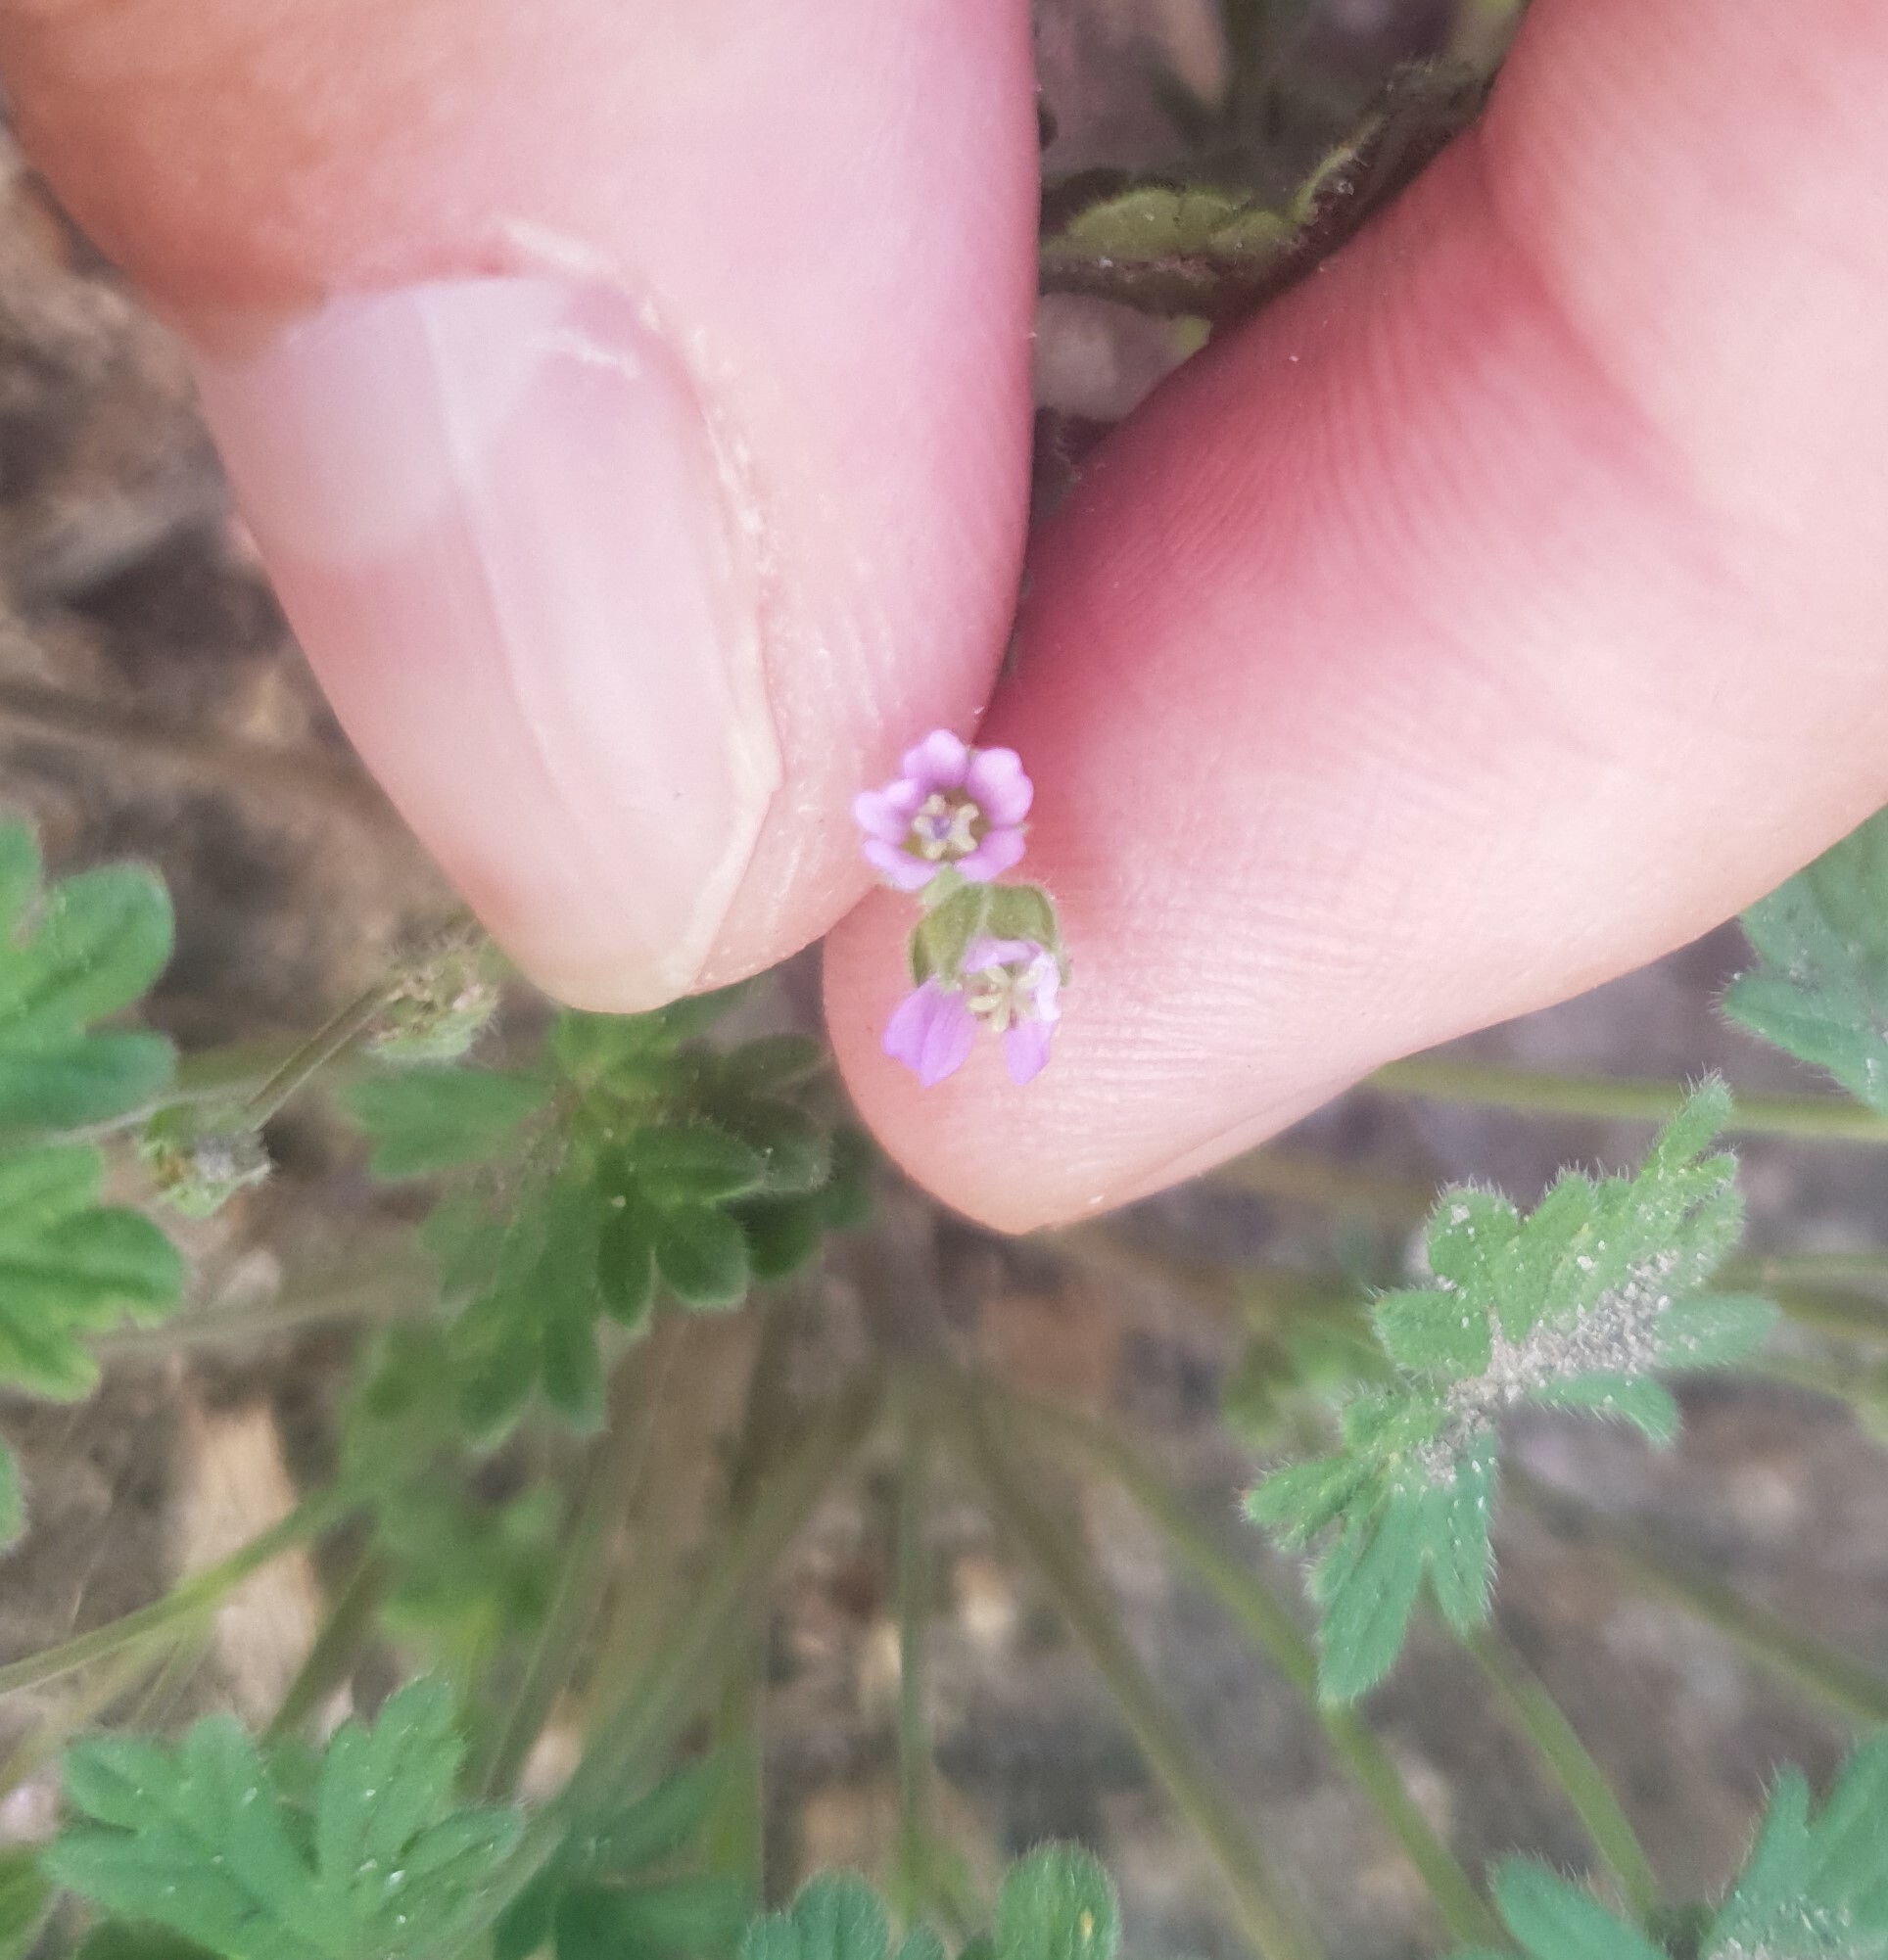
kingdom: Plantae
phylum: Tracheophyta
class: Magnoliopsida
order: Geraniales
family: Geraniaceae
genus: Geranium
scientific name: Geranium pusillum
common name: Small geranium
